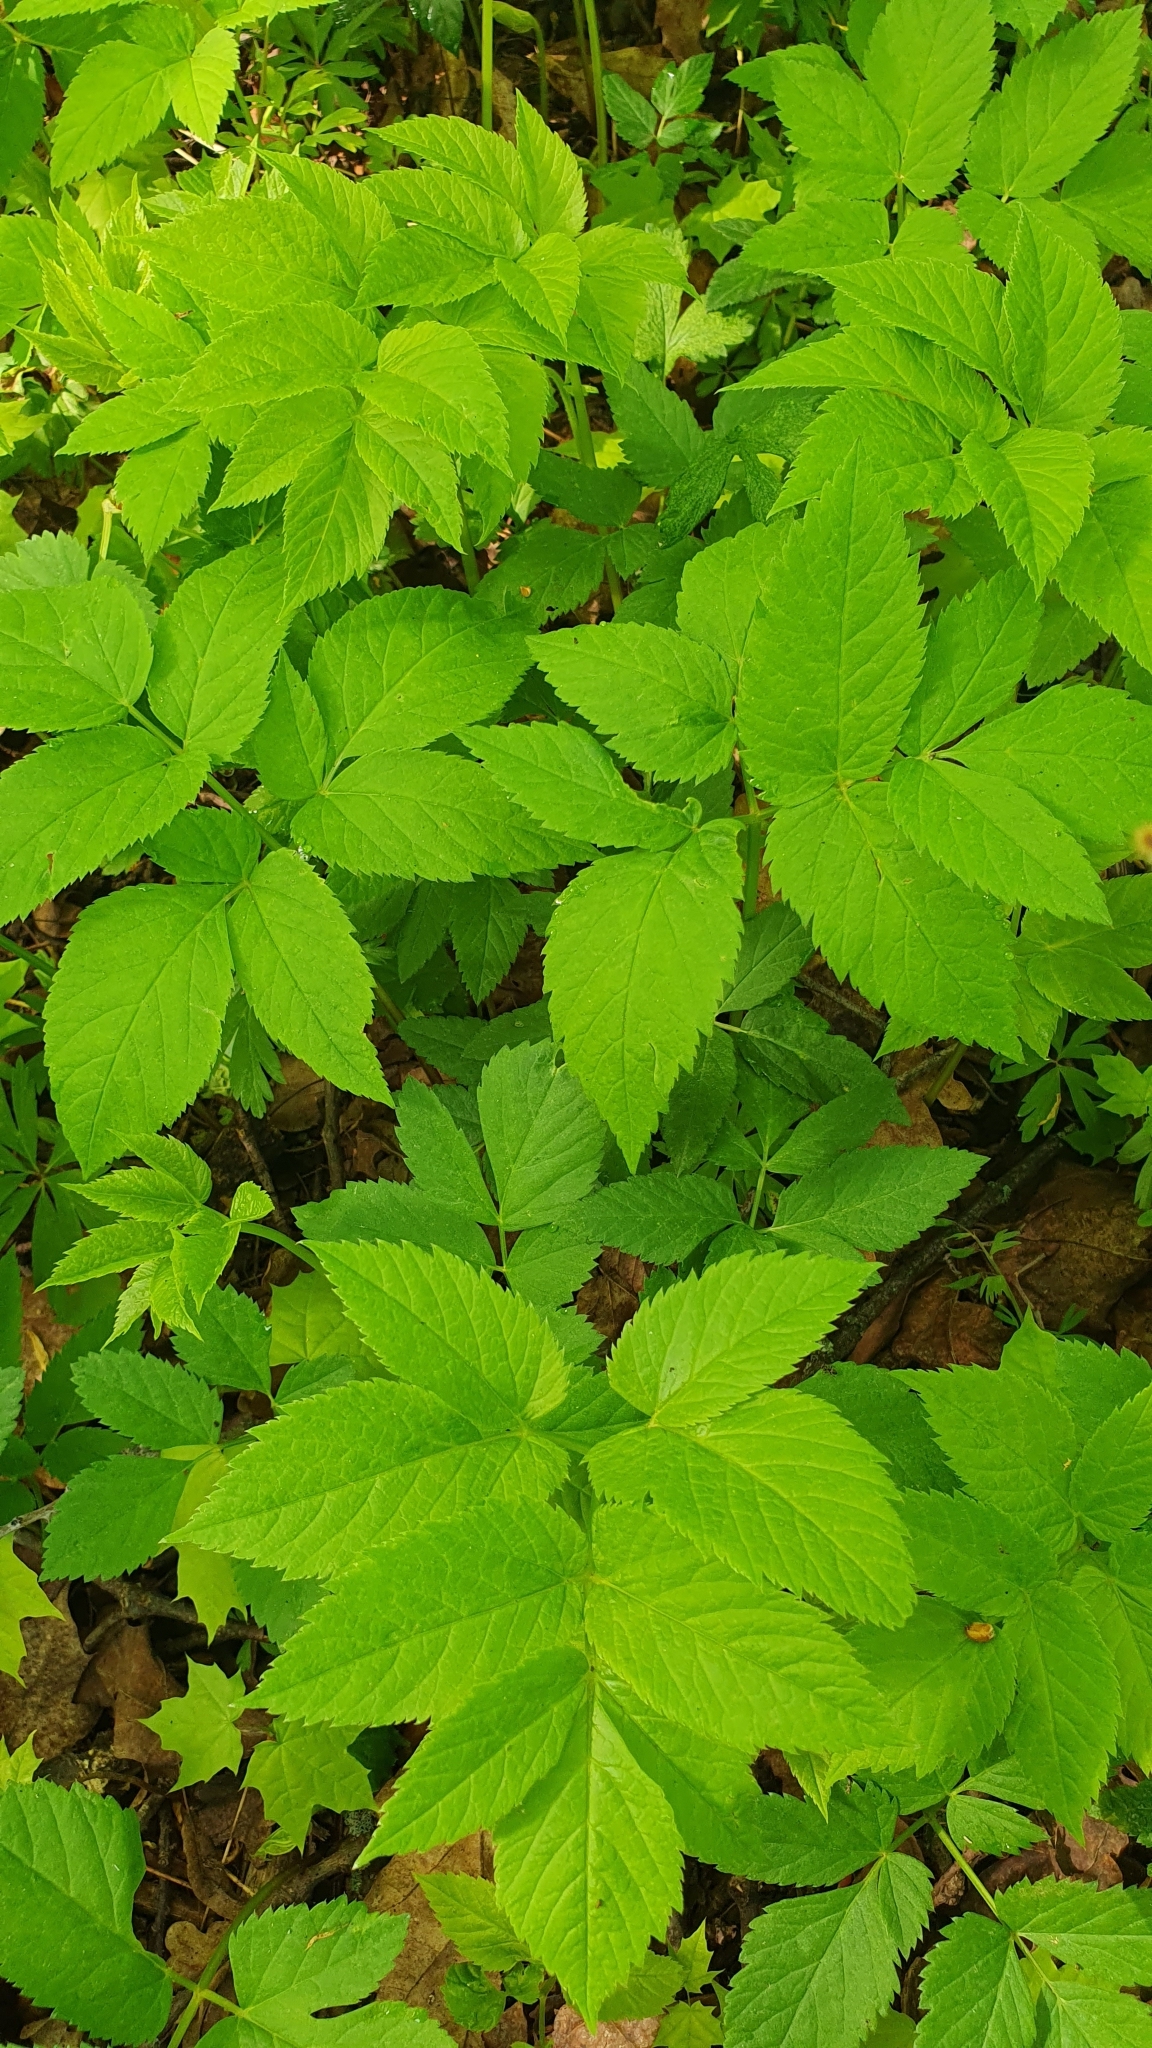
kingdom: Plantae
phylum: Tracheophyta
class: Magnoliopsida
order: Apiales
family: Apiaceae
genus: Aegopodium
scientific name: Aegopodium podagraria
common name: Ground-elder
